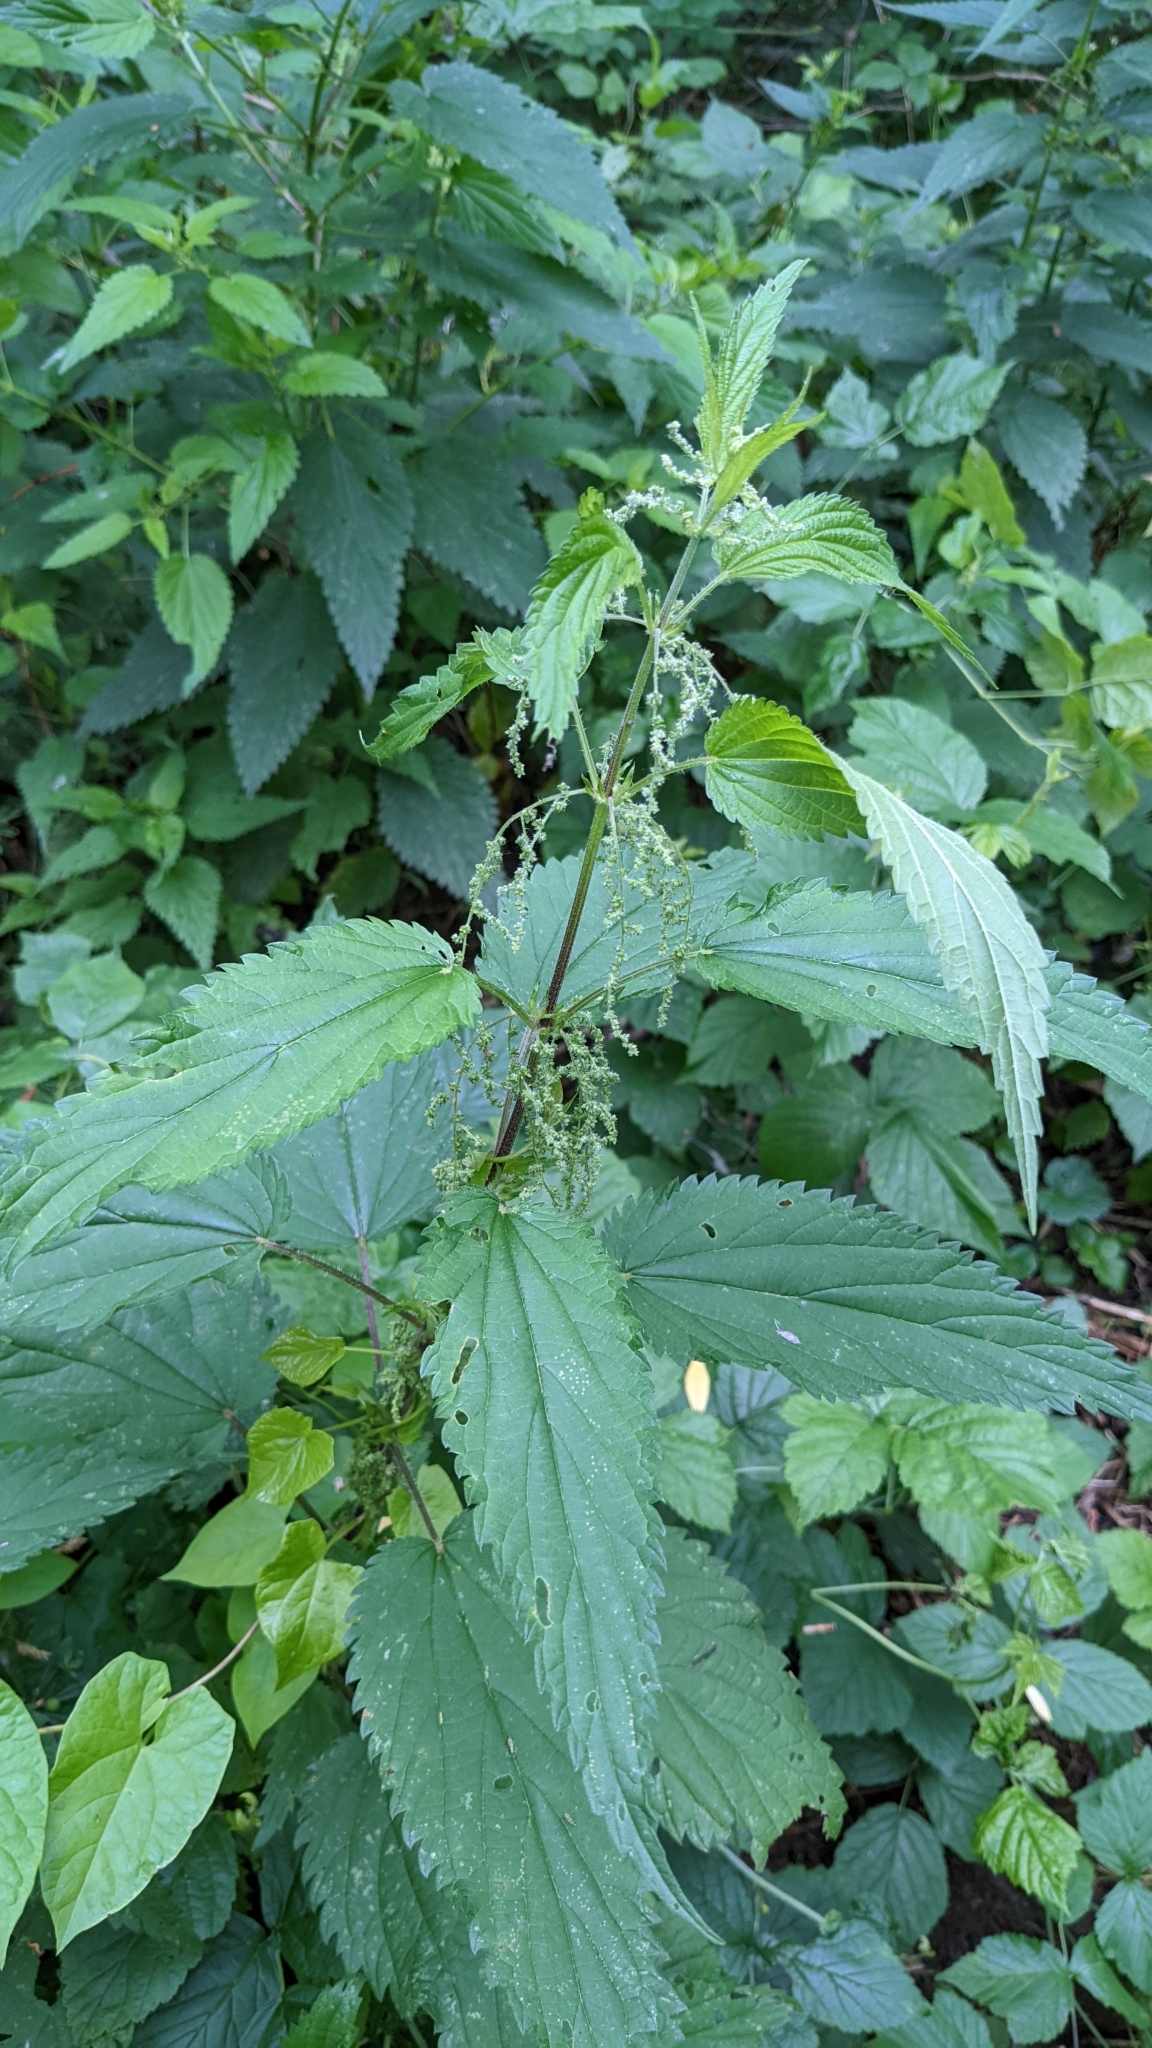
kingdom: Plantae
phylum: Tracheophyta
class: Magnoliopsida
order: Rosales
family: Urticaceae
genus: Urtica
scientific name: Urtica dioica
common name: Common nettle
